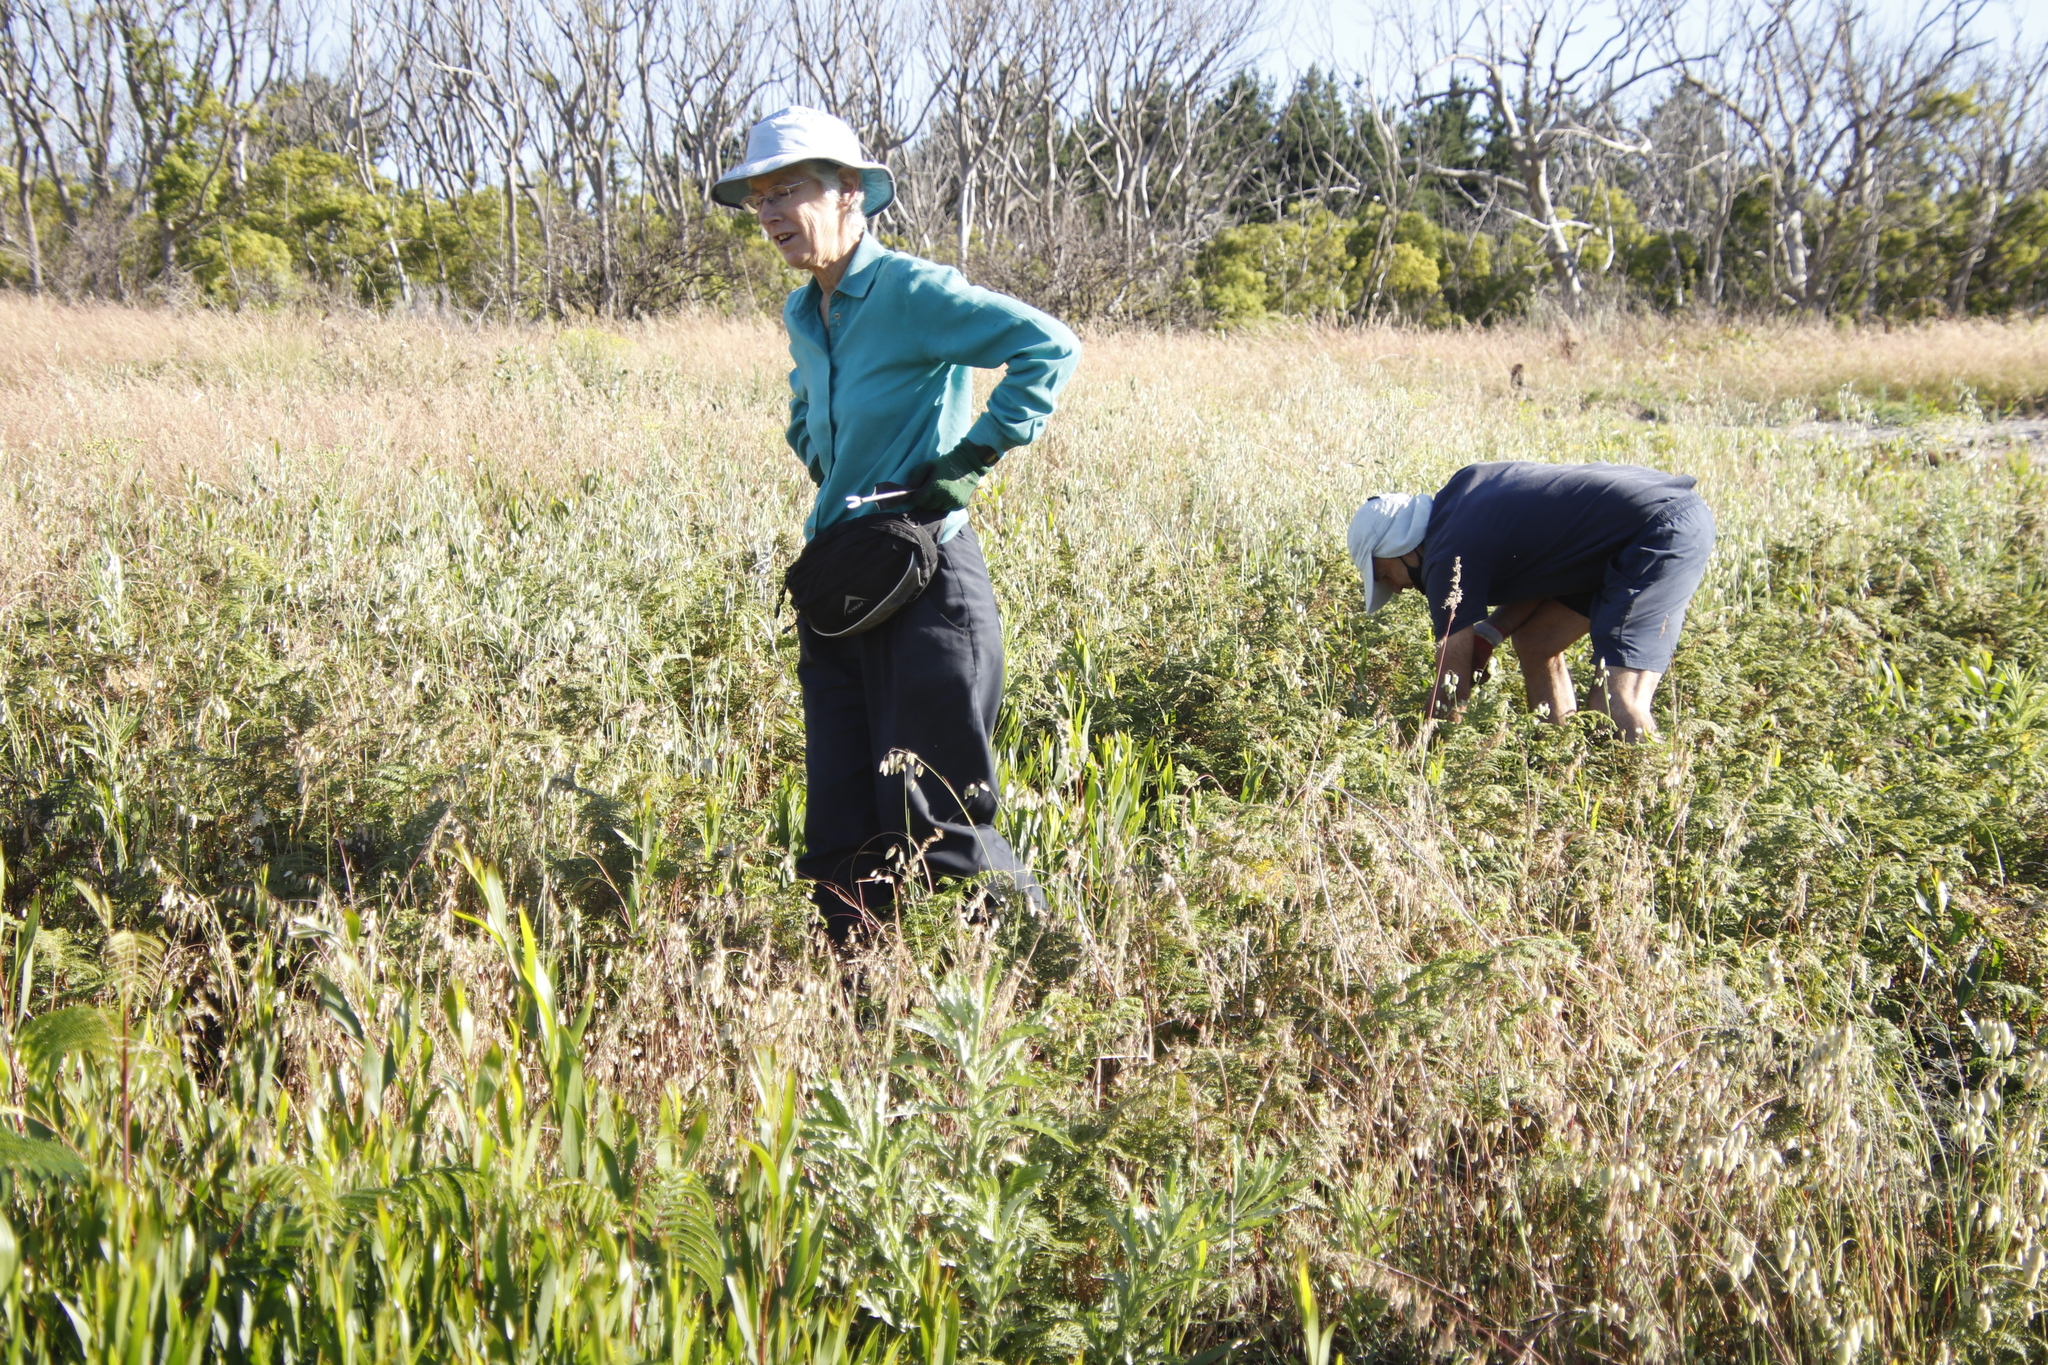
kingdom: Plantae
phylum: Tracheophyta
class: Magnoliopsida
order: Fabales
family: Fabaceae
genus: Vicia
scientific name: Vicia sativa
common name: Garden vetch
